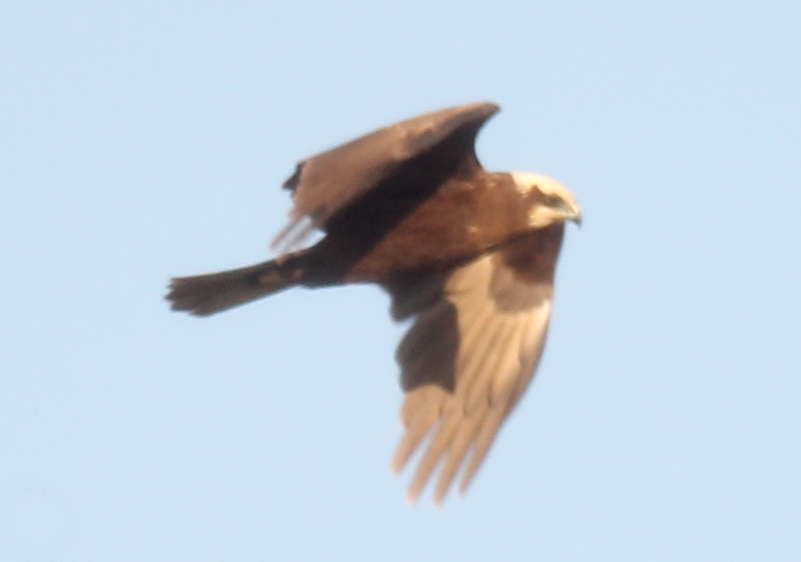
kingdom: Animalia
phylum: Chordata
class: Aves
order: Accipitriformes
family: Accipitridae
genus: Circus
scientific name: Circus aeruginosus
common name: Western marsh harrier
